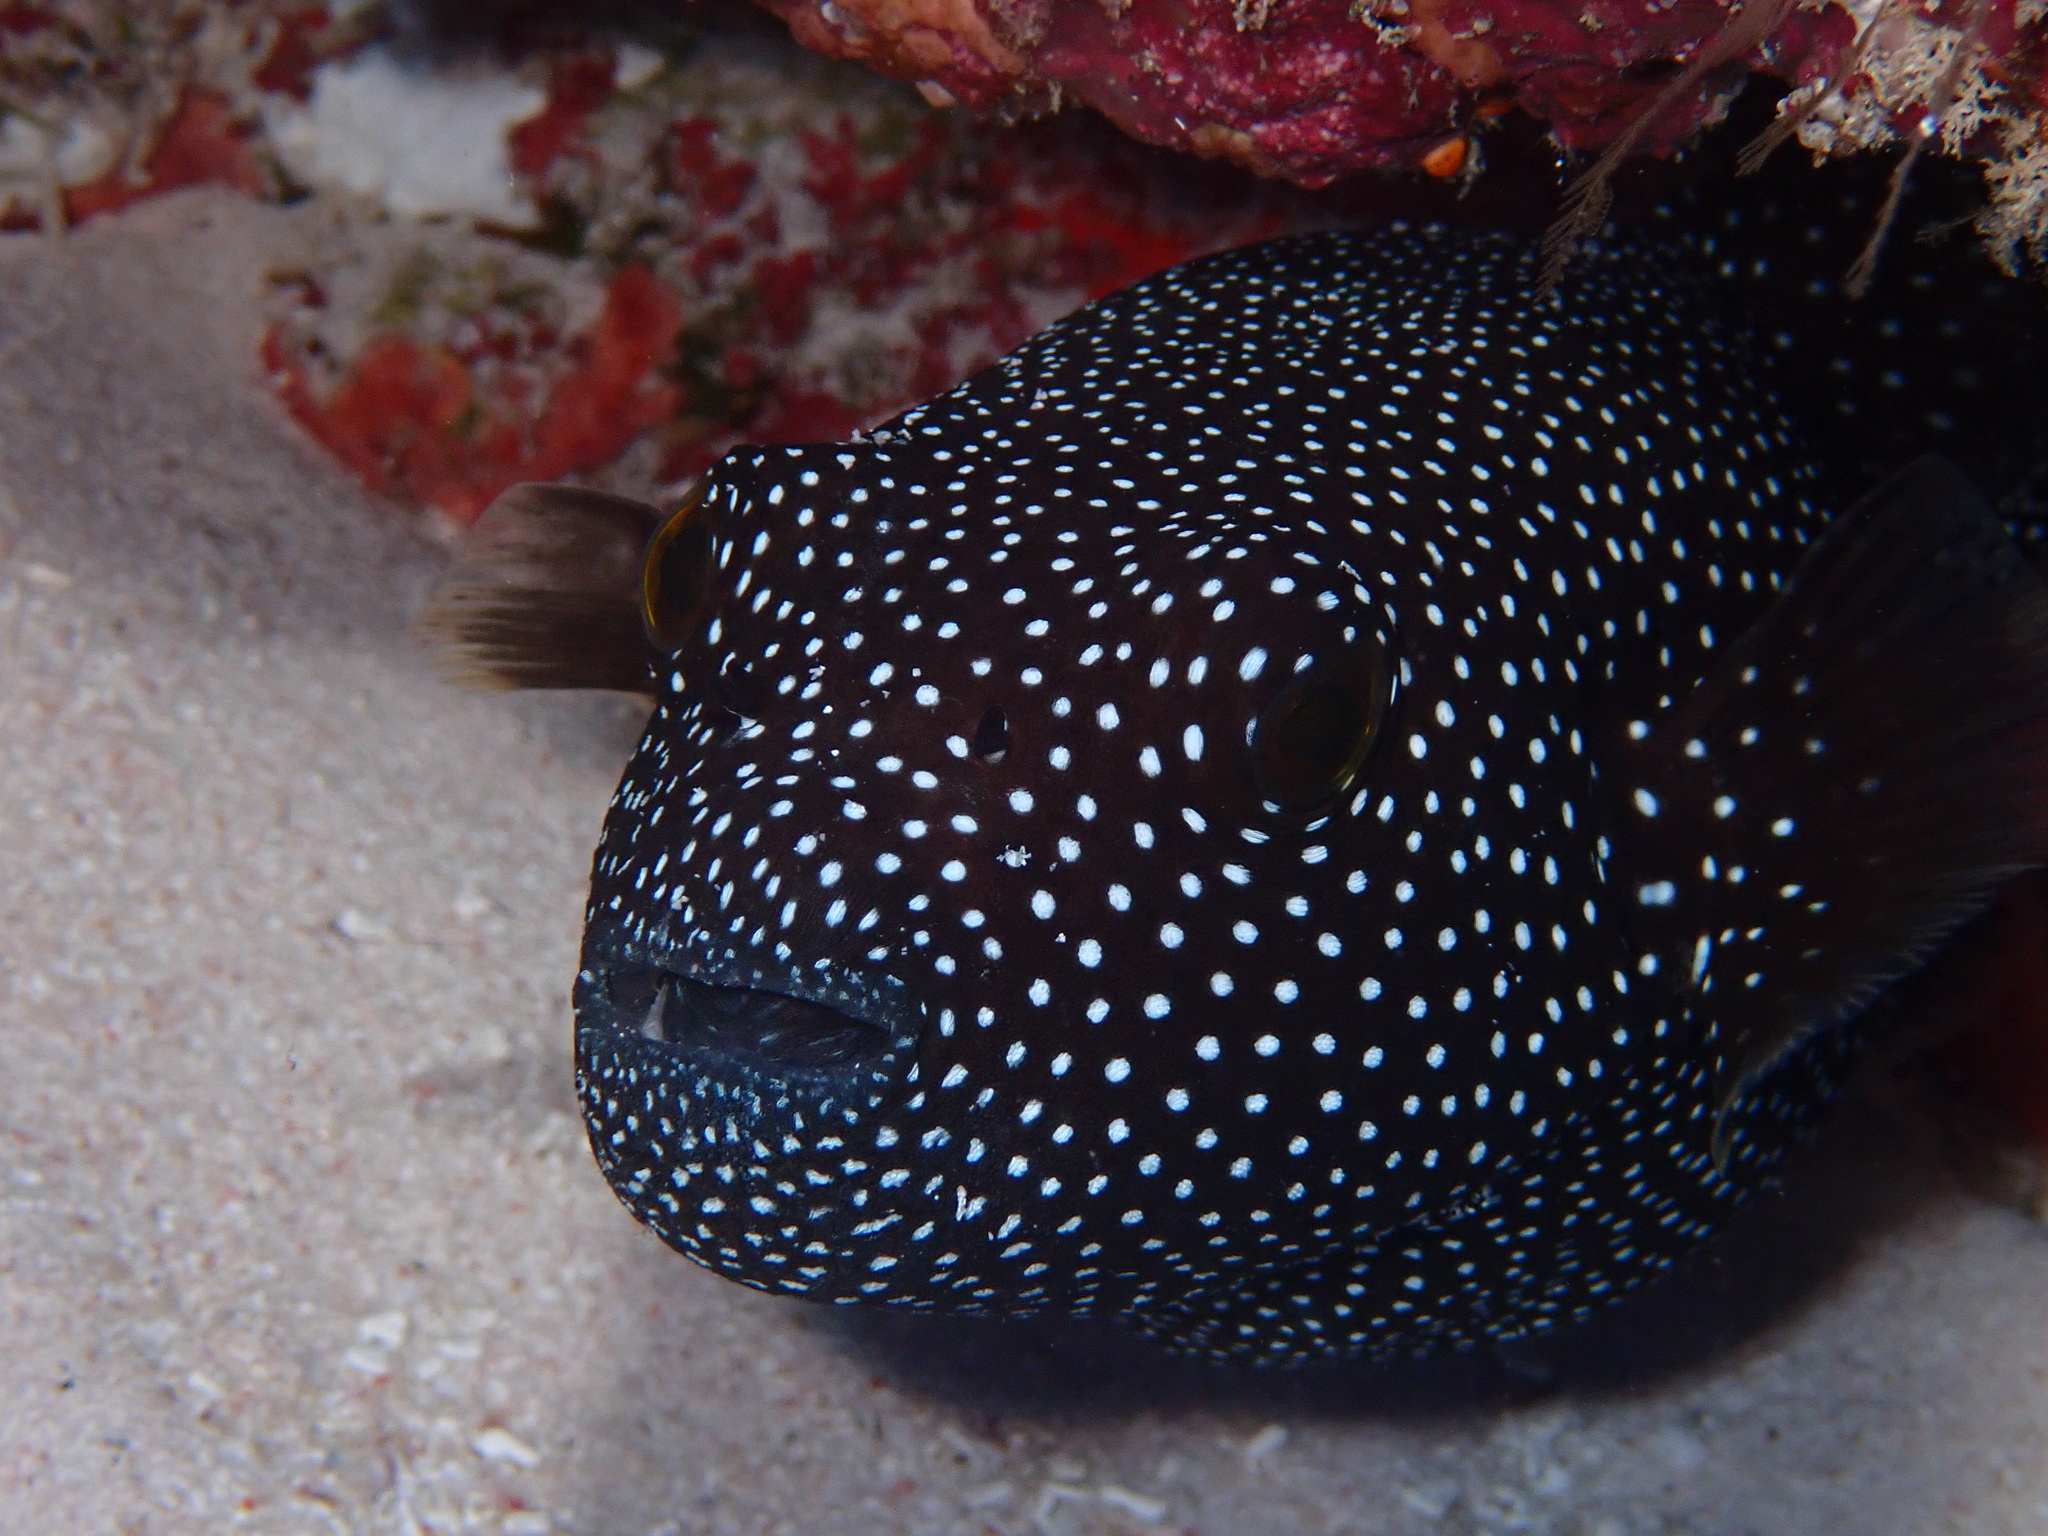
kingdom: Animalia
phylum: Chordata
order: Tetraodontiformes
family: Tetraodontidae
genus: Arothron
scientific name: Arothron meleagris
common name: Guinea-fowl pufferfish
